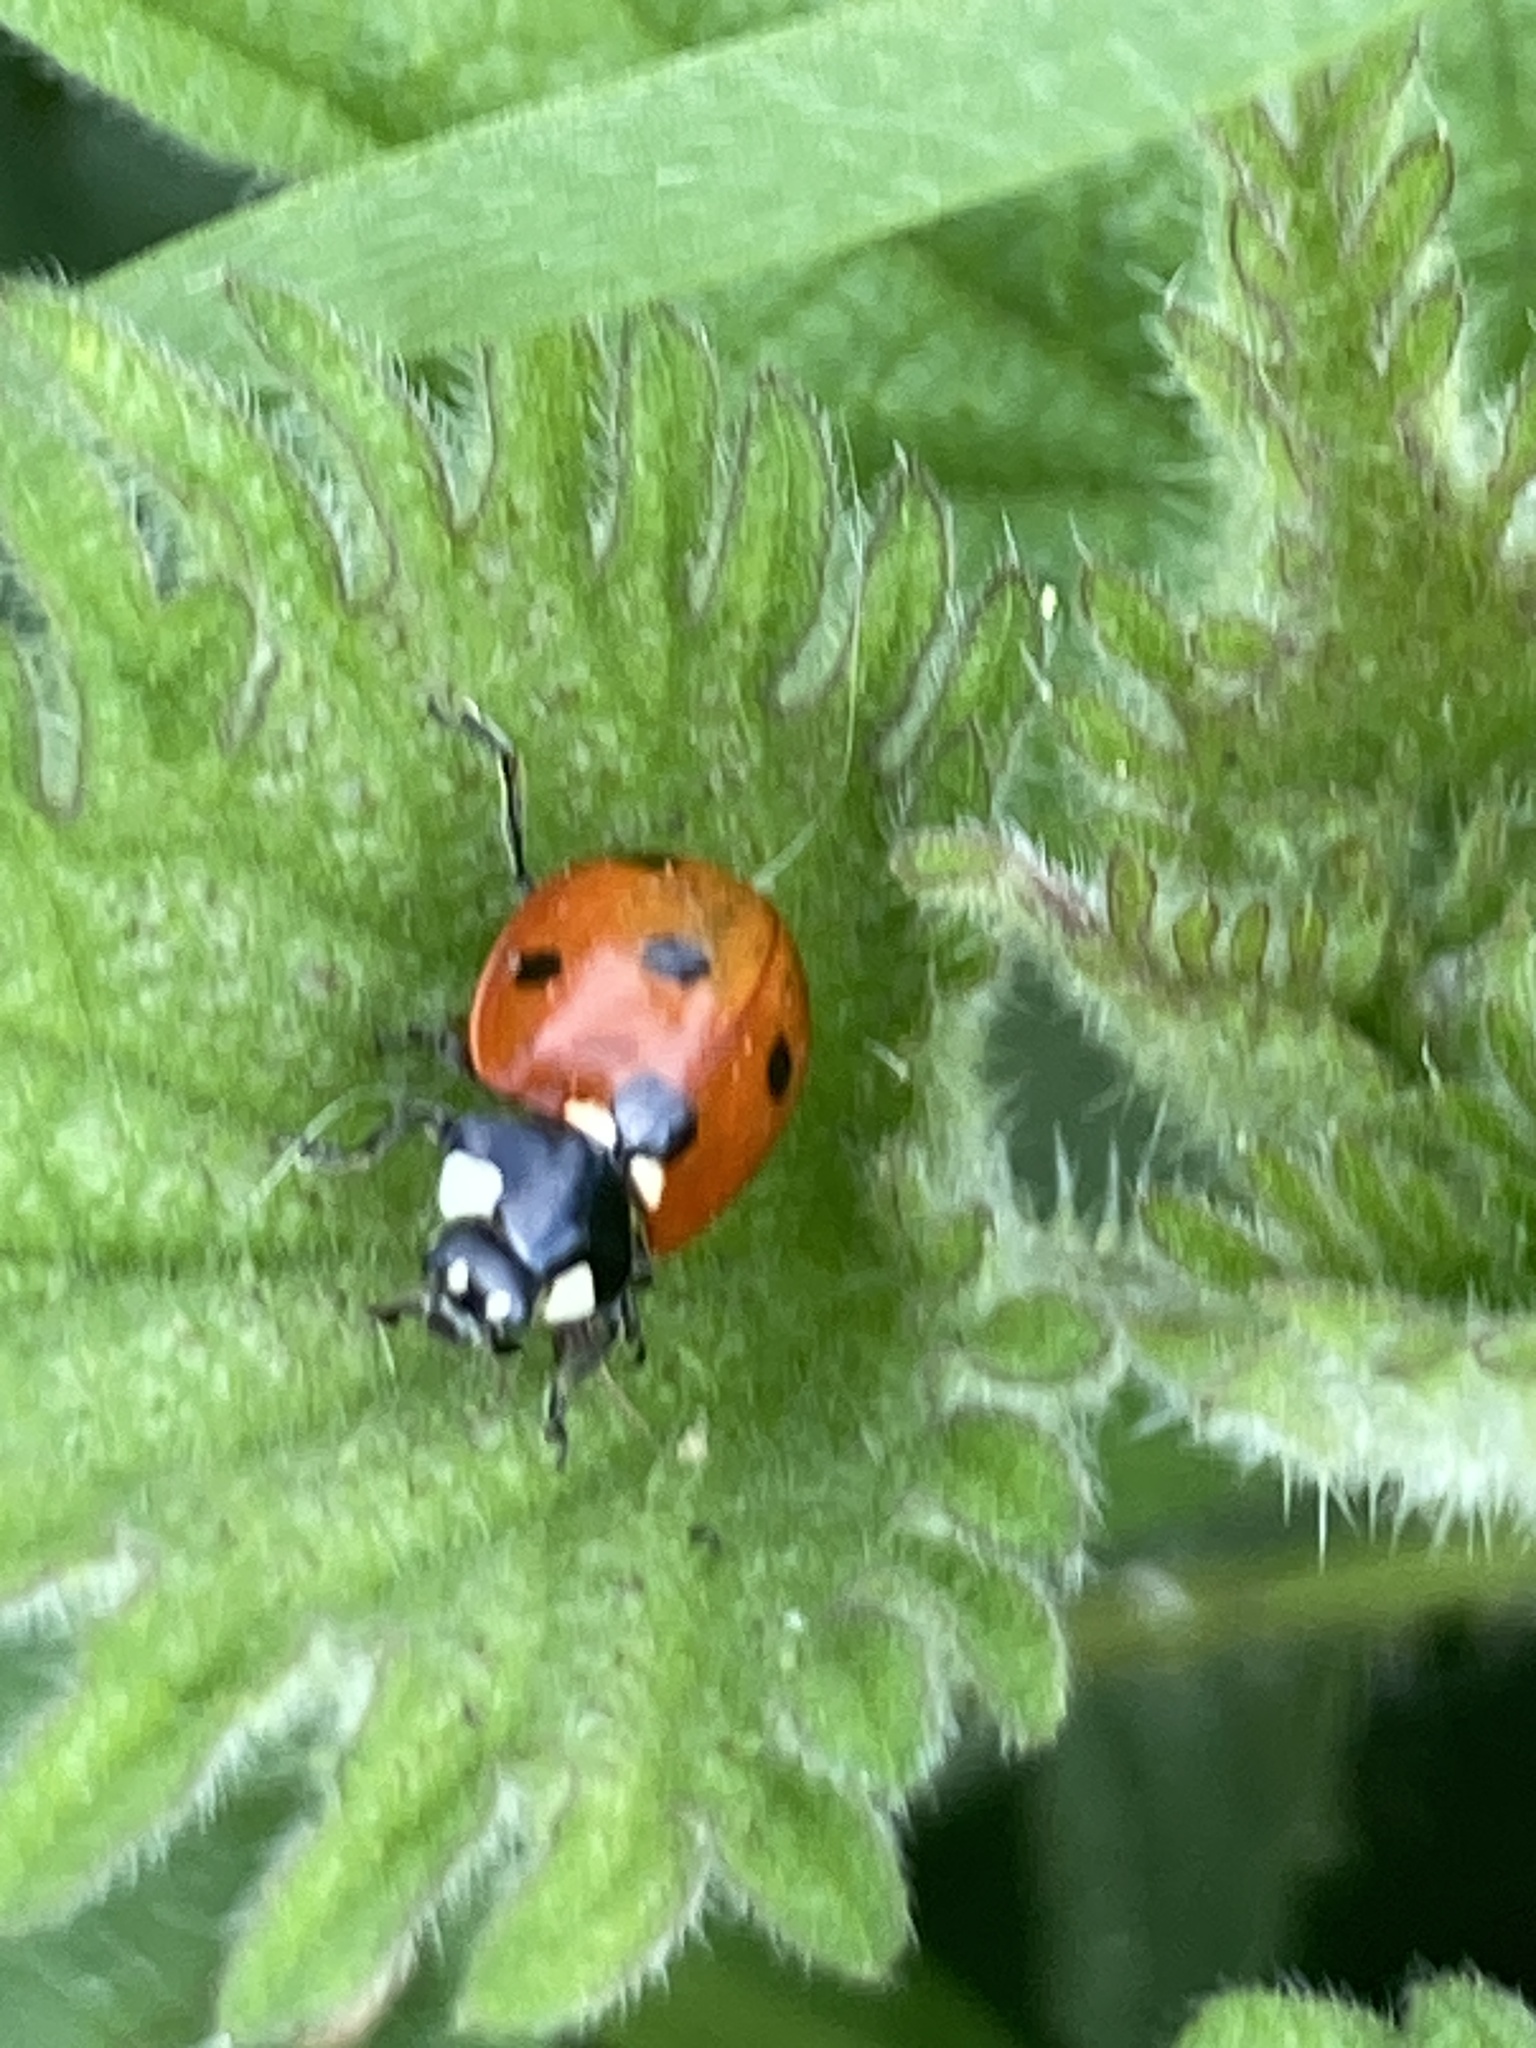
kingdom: Animalia
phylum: Arthropoda
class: Insecta
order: Coleoptera
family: Coccinellidae
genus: Coccinella
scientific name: Coccinella septempunctata
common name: Sevenspotted lady beetle
